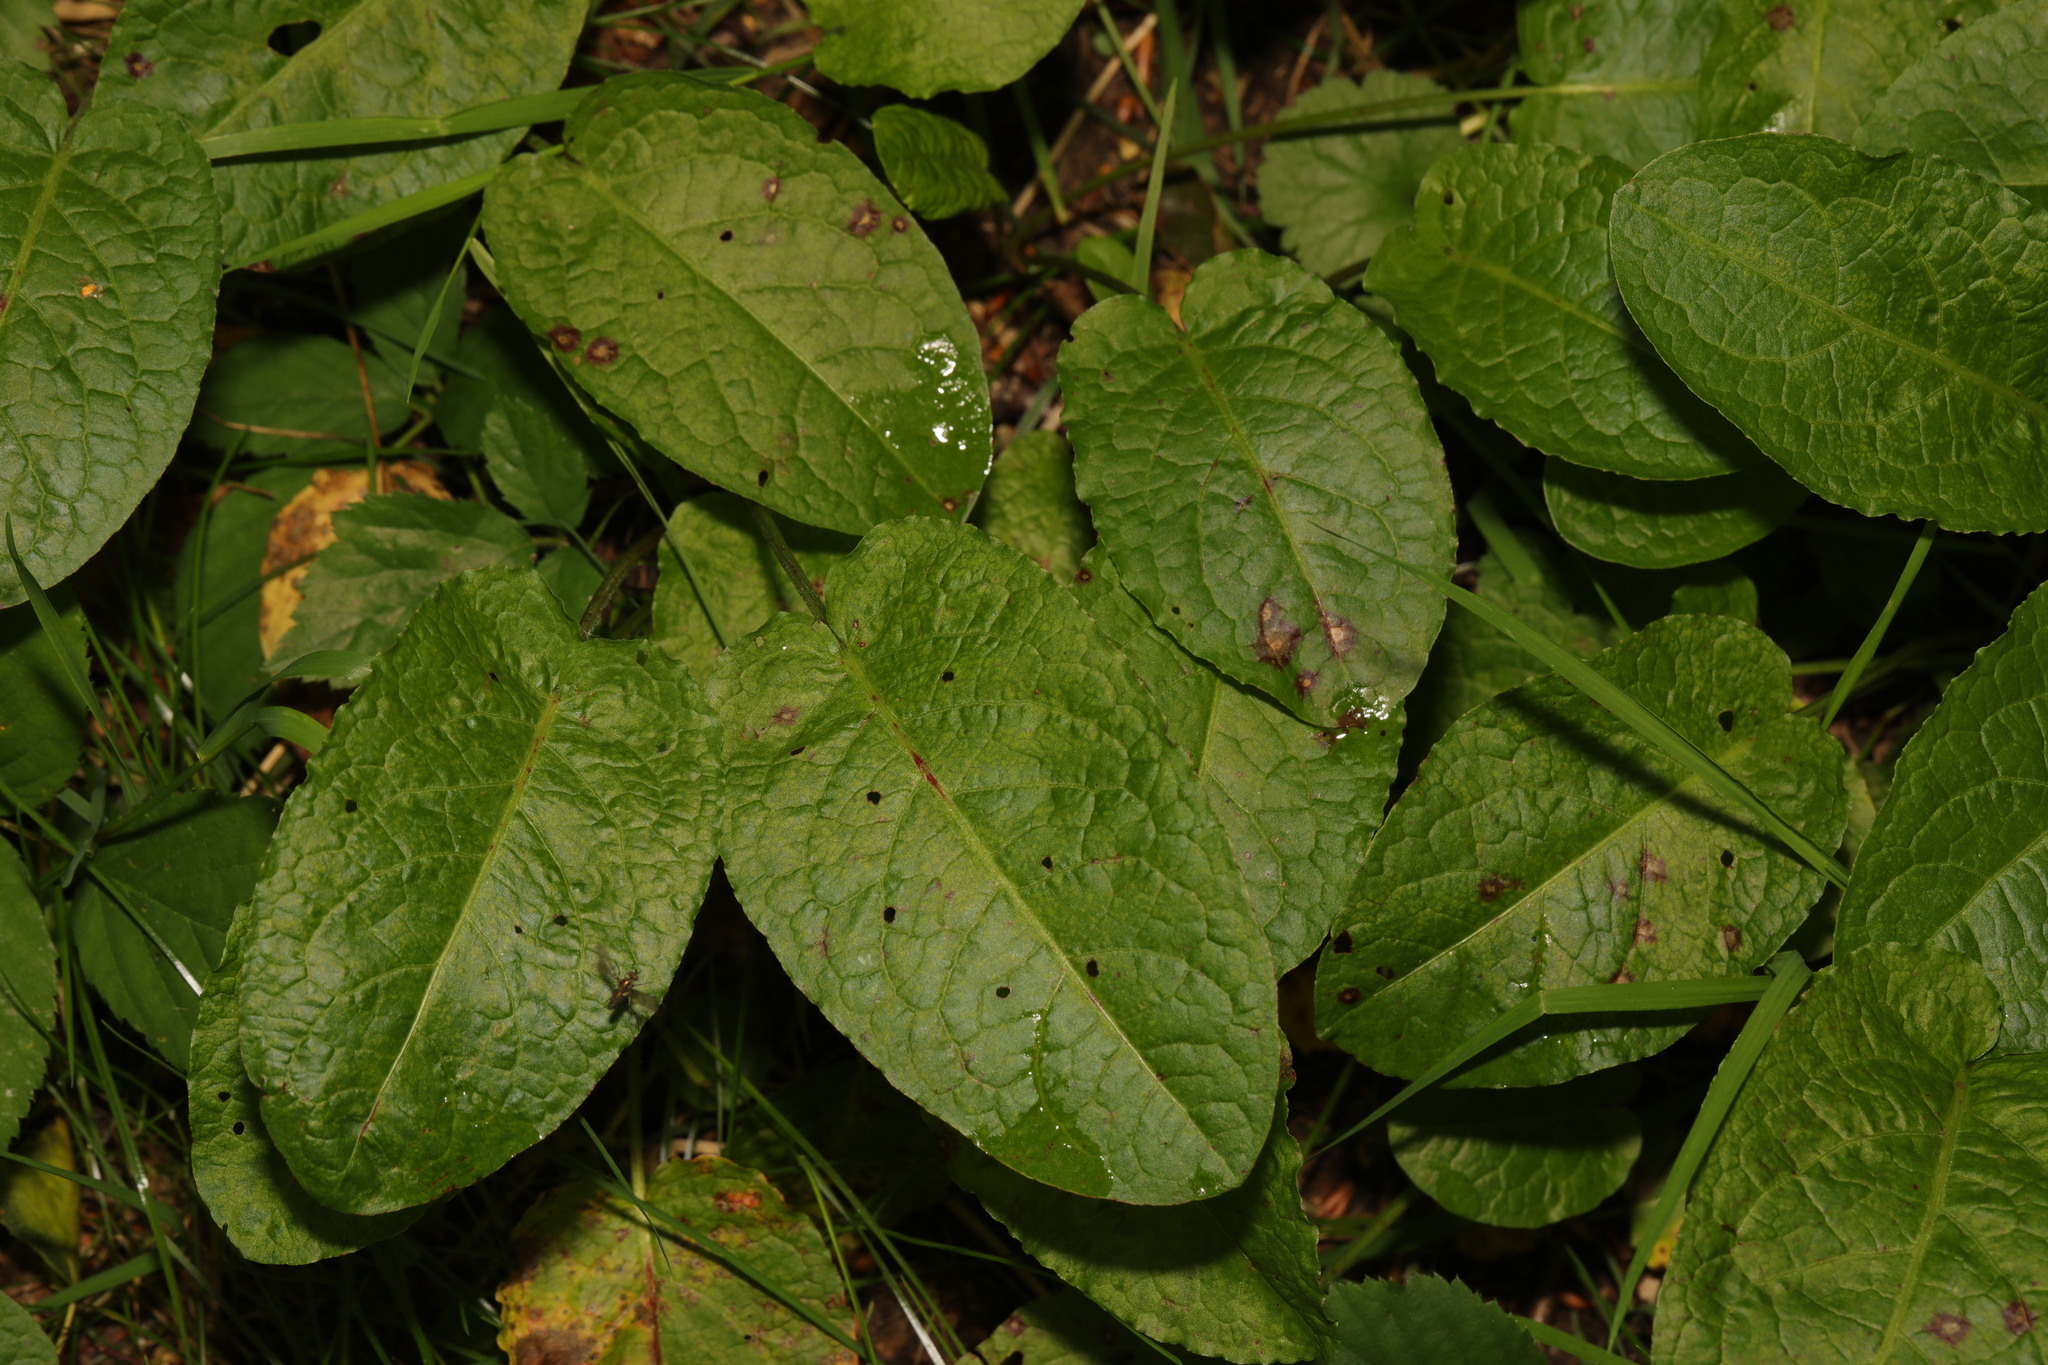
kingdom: Plantae
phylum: Tracheophyta
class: Magnoliopsida
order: Caryophyllales
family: Polygonaceae
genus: Rumex
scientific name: Rumex obtusifolius
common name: Bitter dock
